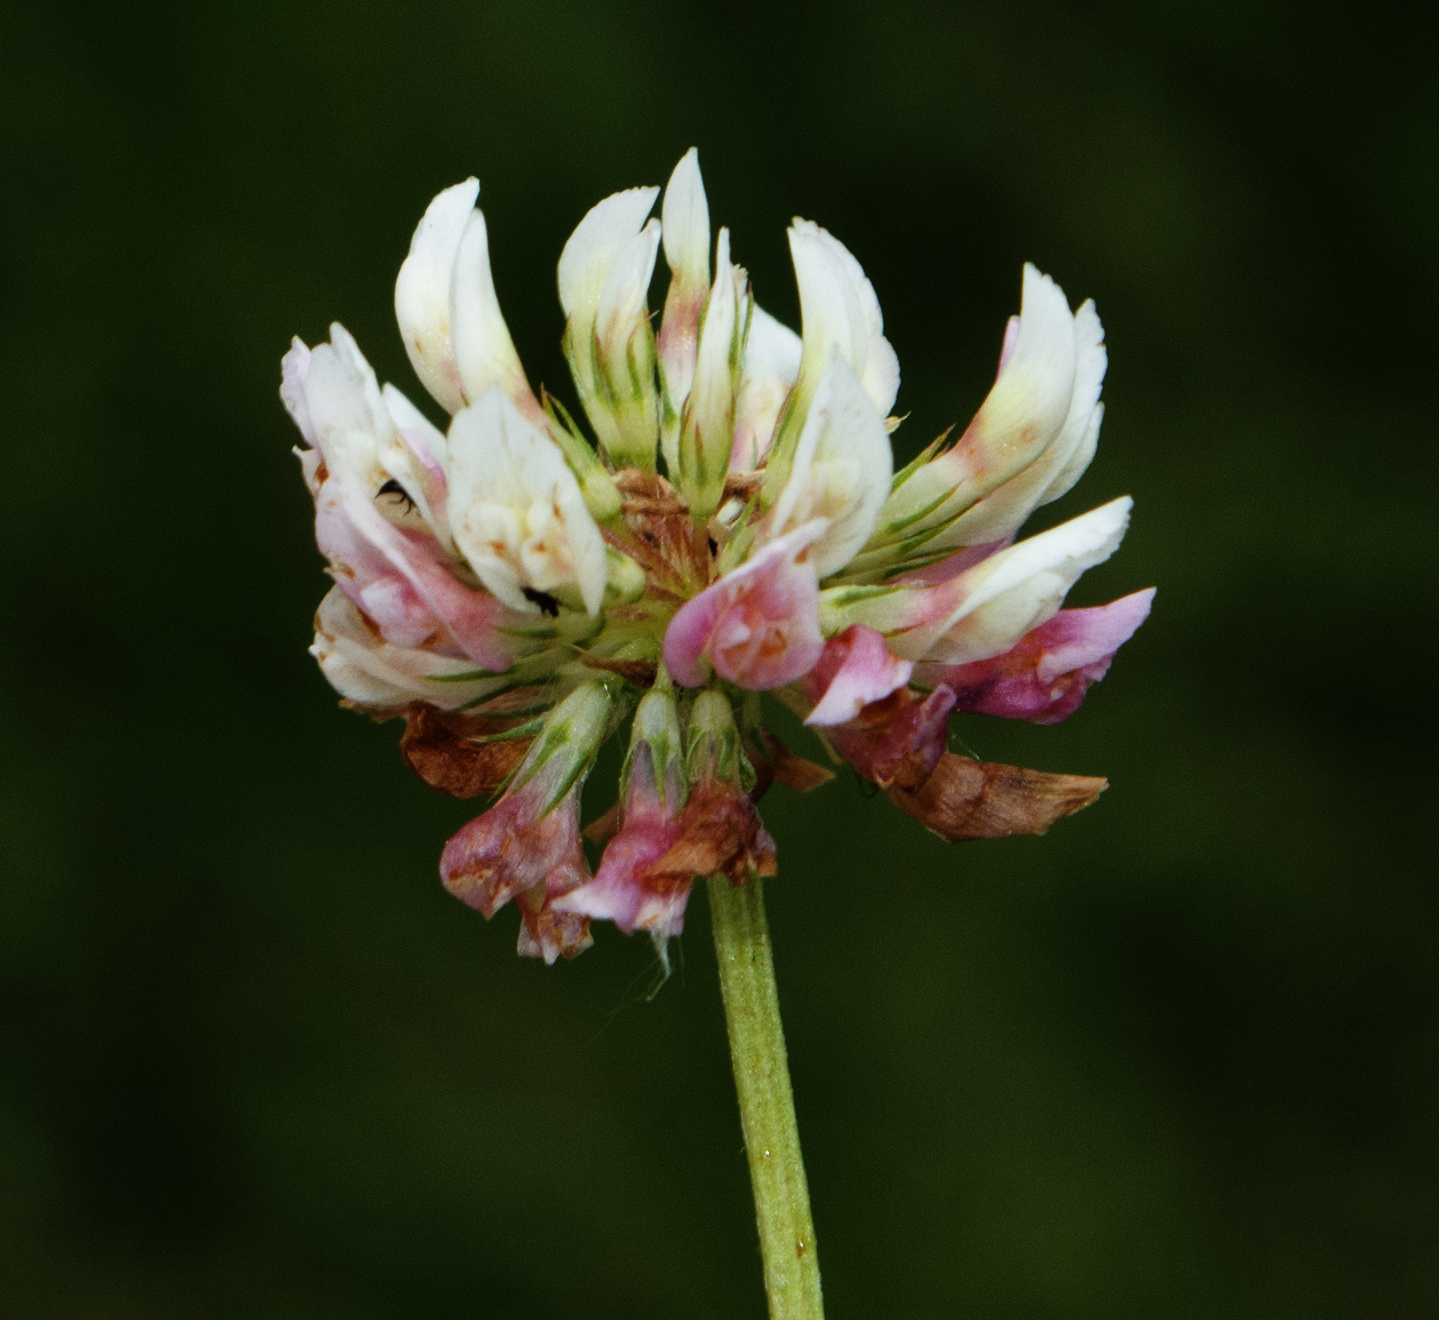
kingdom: Plantae
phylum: Tracheophyta
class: Magnoliopsida
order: Fabales
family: Fabaceae
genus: Trifolium
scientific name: Trifolium hybridum
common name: Alsike clover
